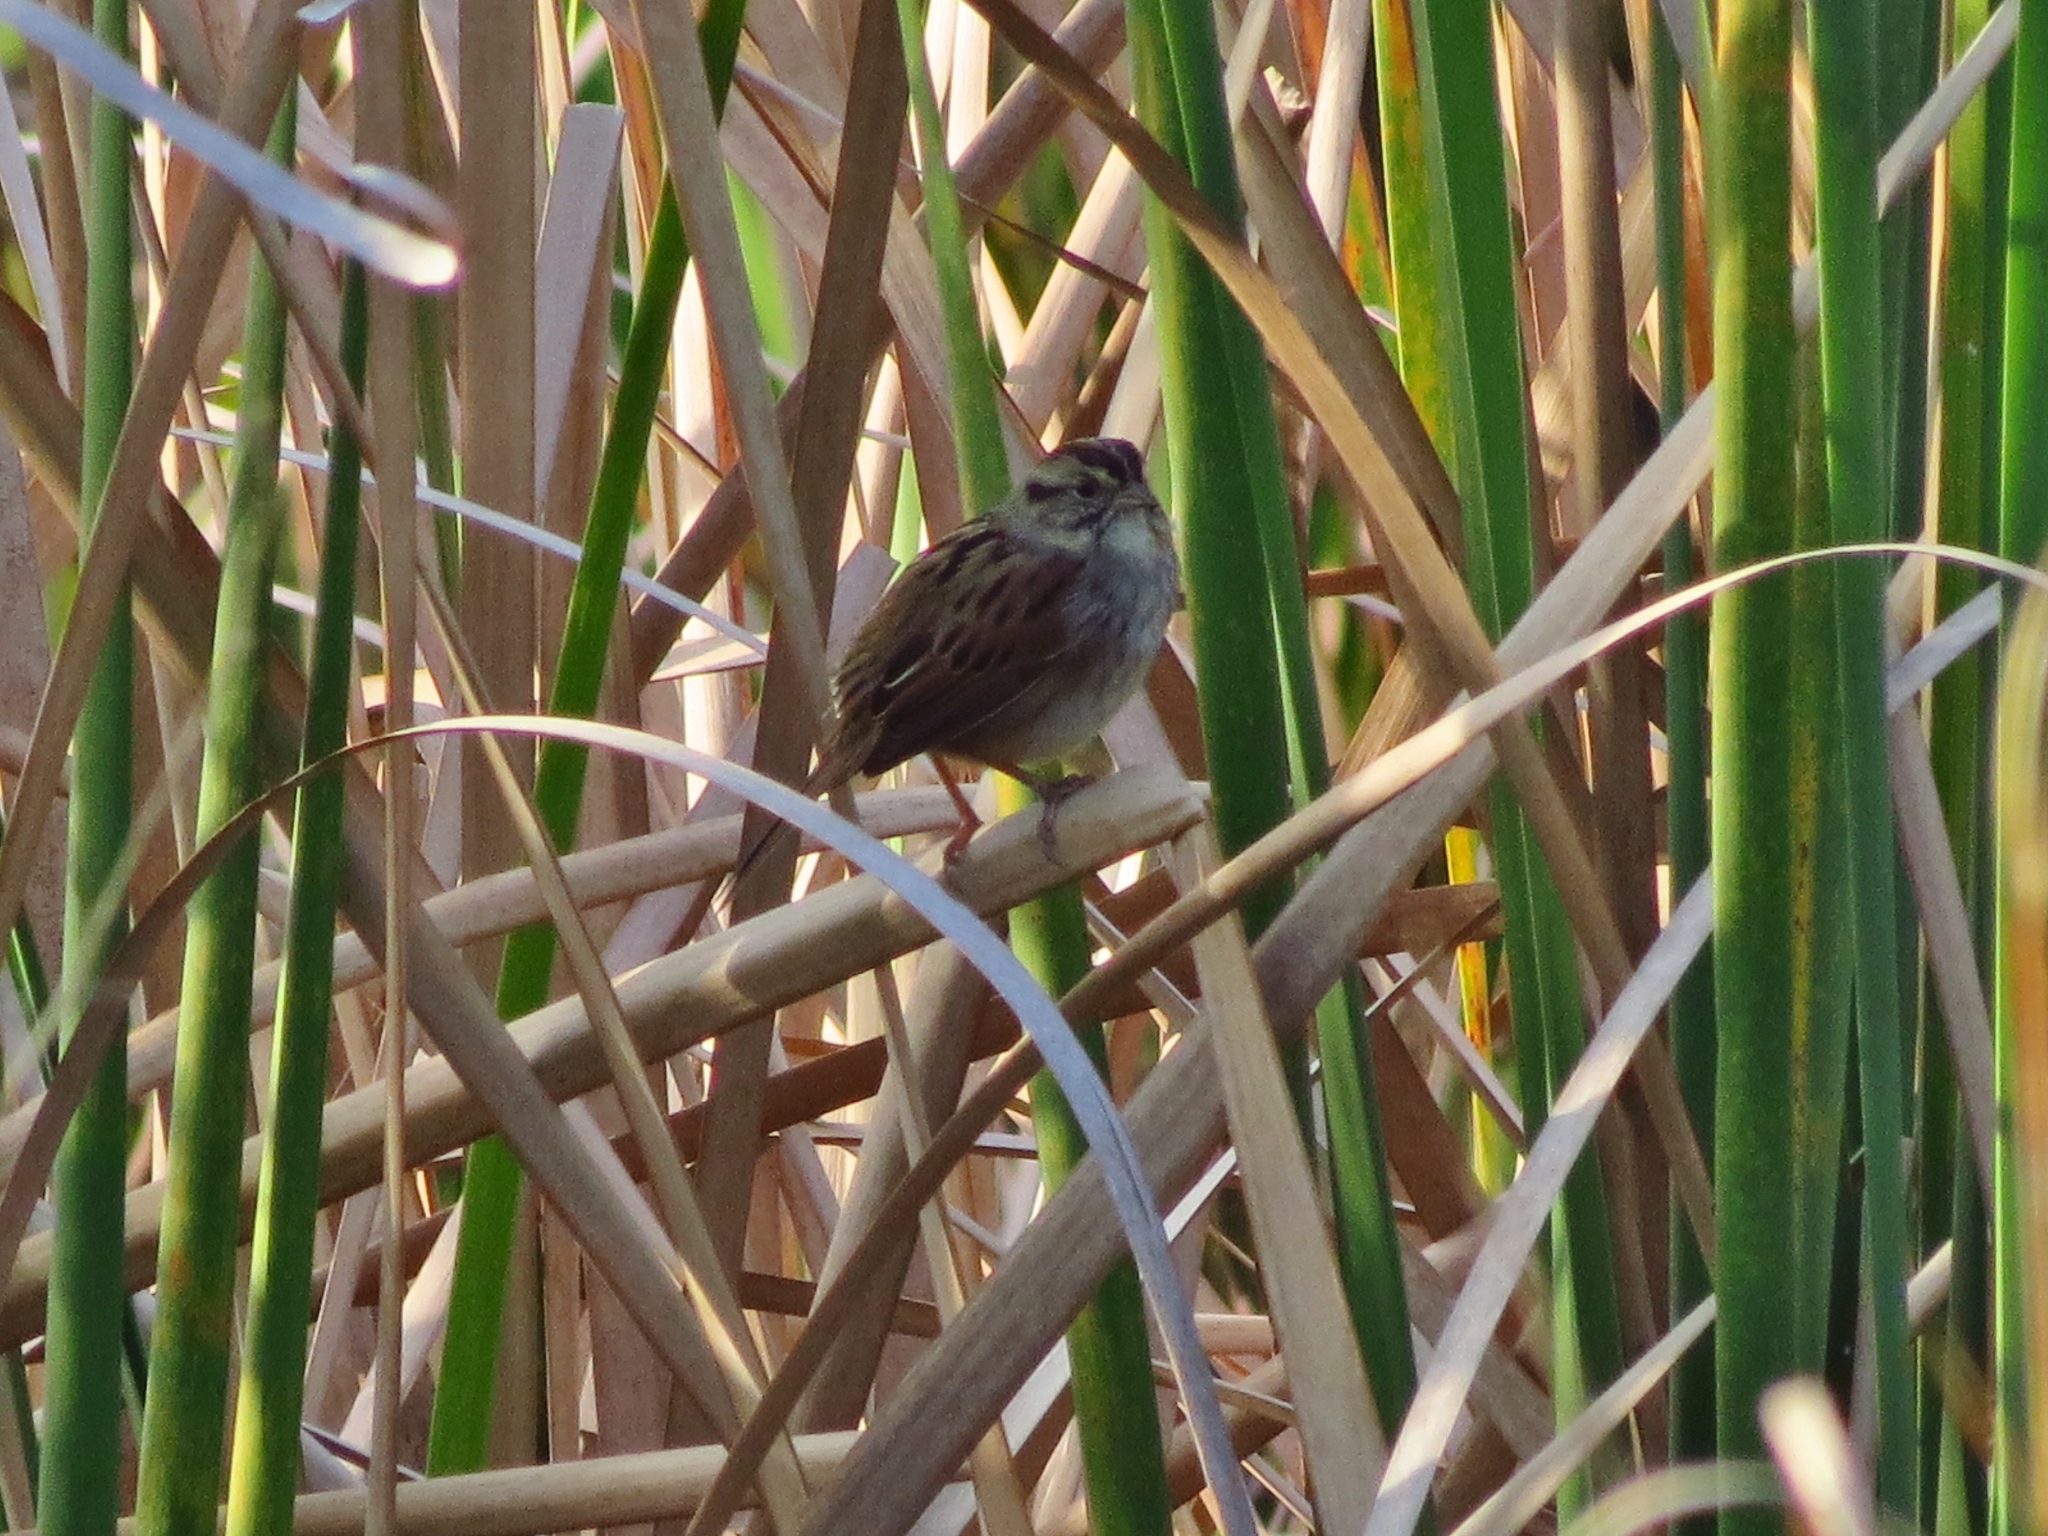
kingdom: Animalia
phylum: Chordata
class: Aves
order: Passeriformes
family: Passerellidae
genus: Melospiza
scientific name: Melospiza georgiana
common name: Swamp sparrow
